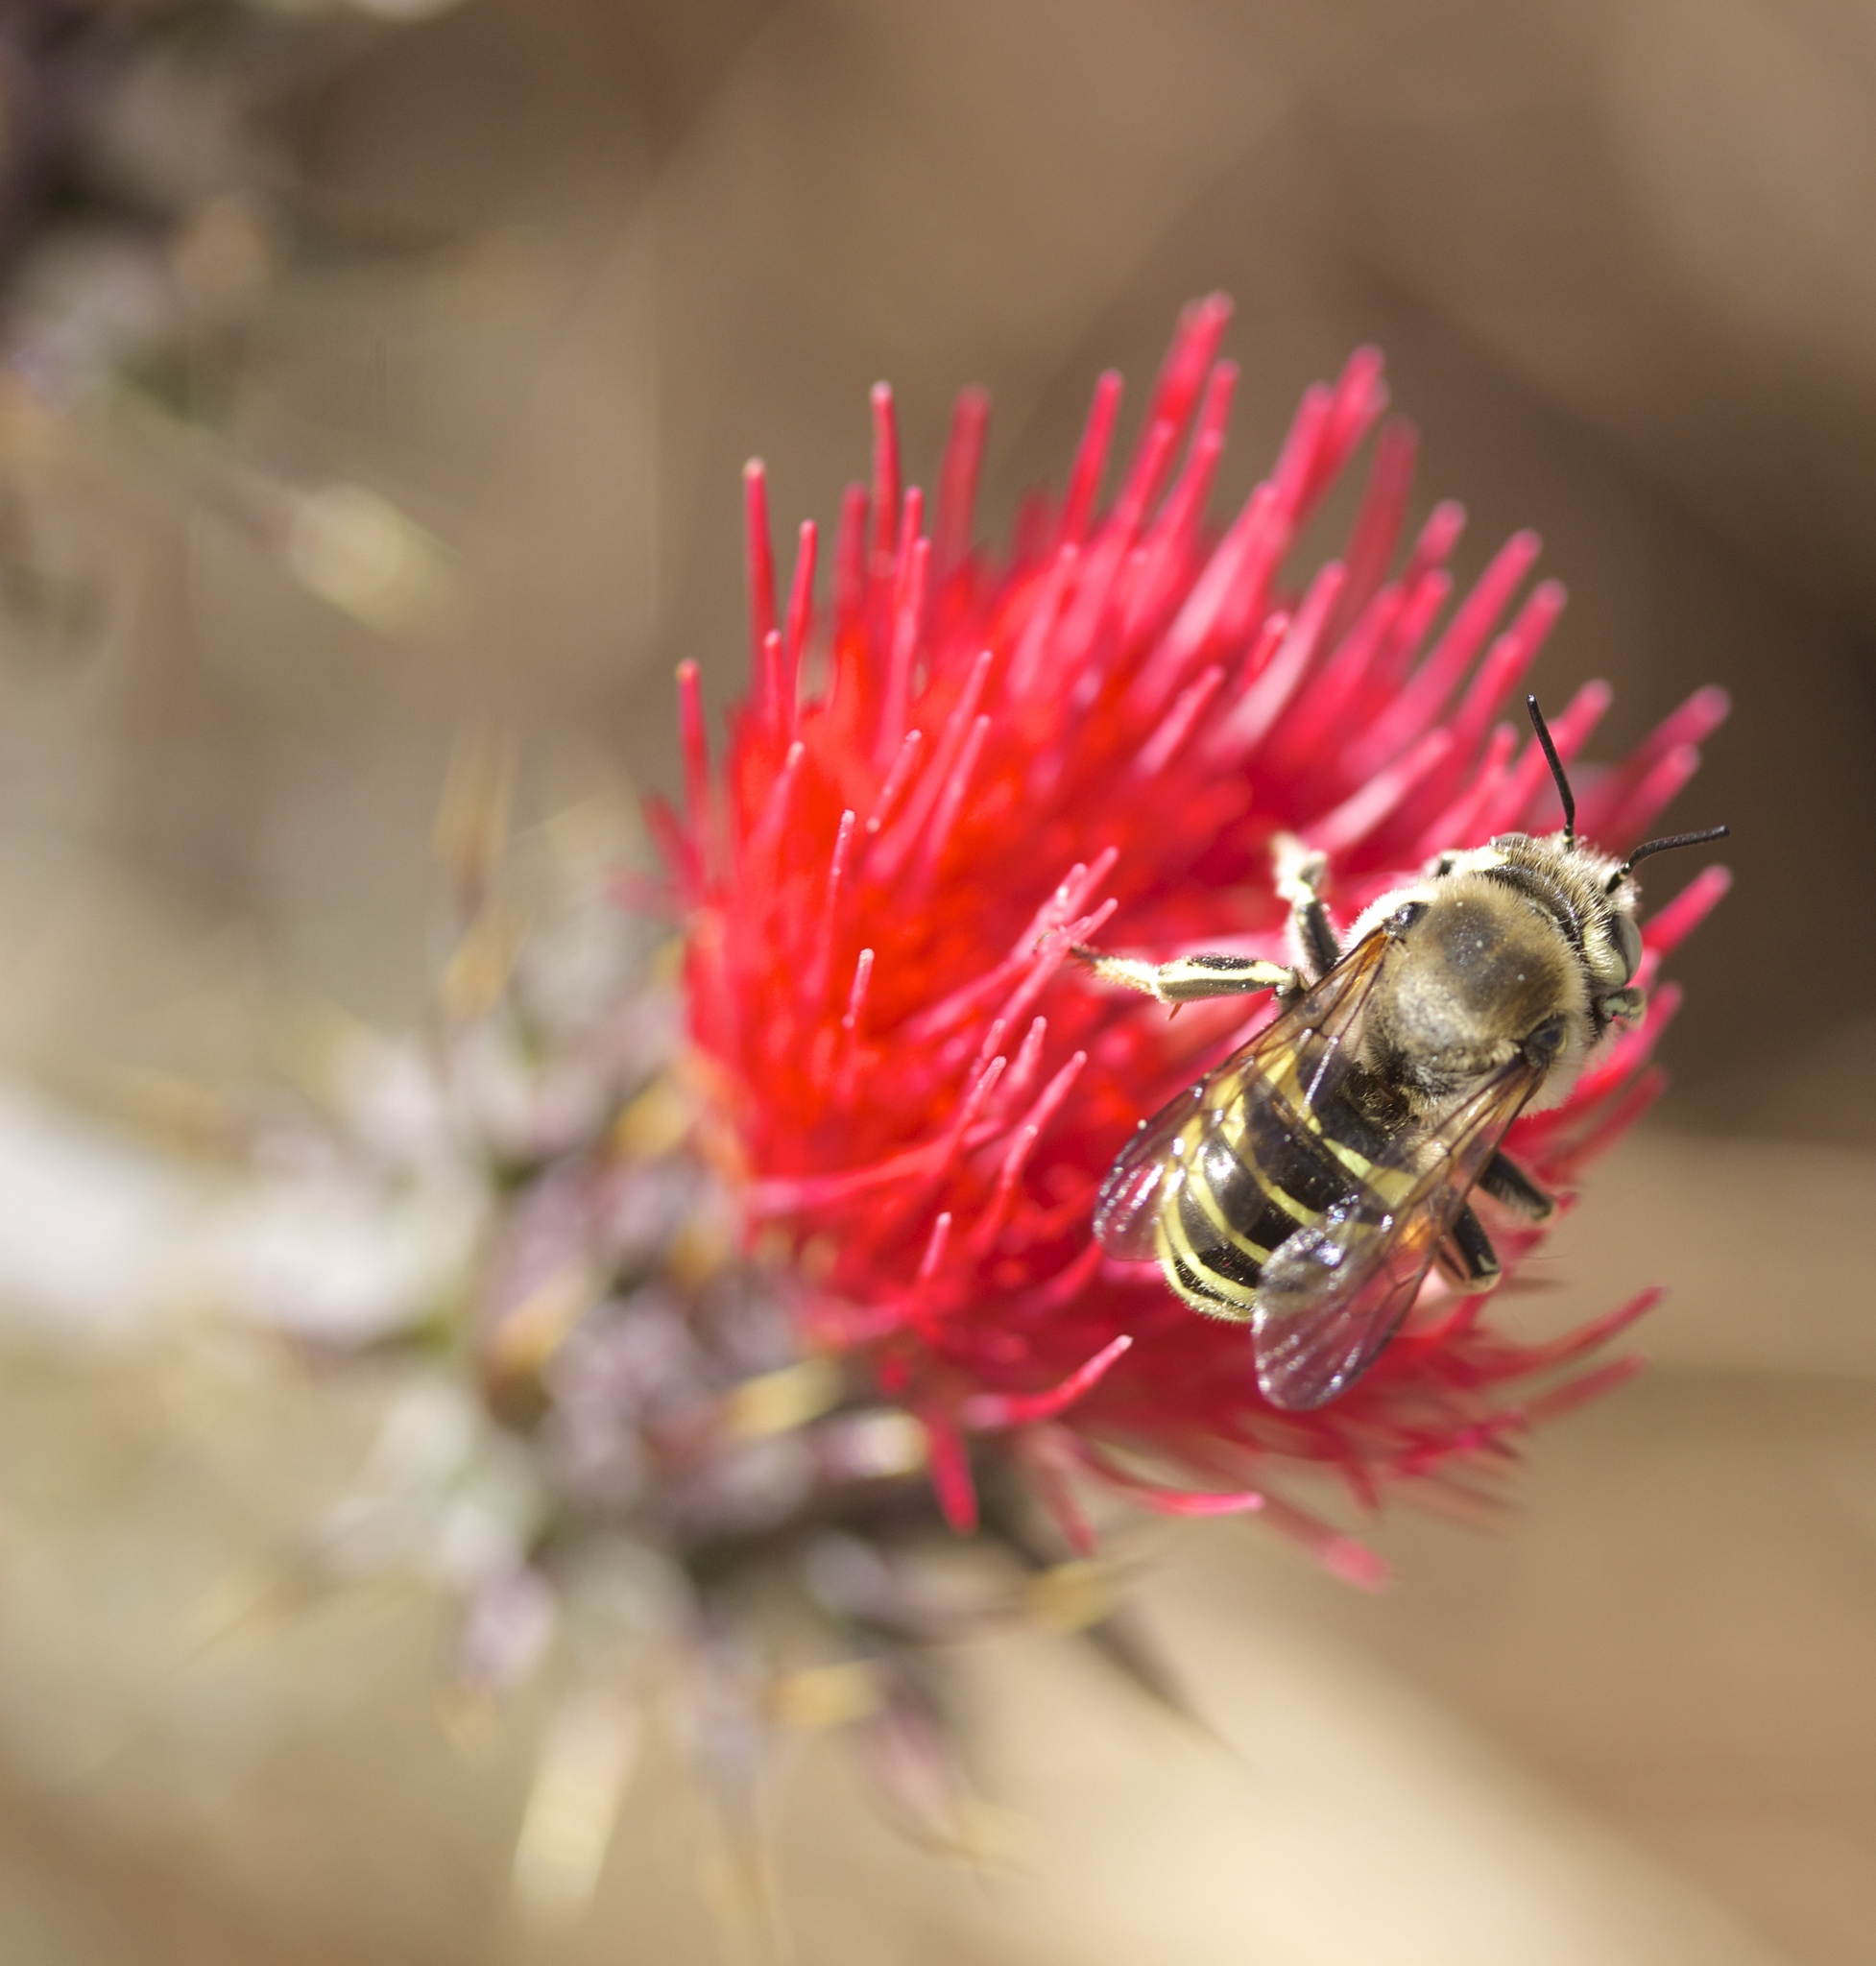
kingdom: Animalia
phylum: Arthropoda
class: Insecta
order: Hymenoptera
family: Megachilidae
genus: Trachusa
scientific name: Trachusa timberlakei
